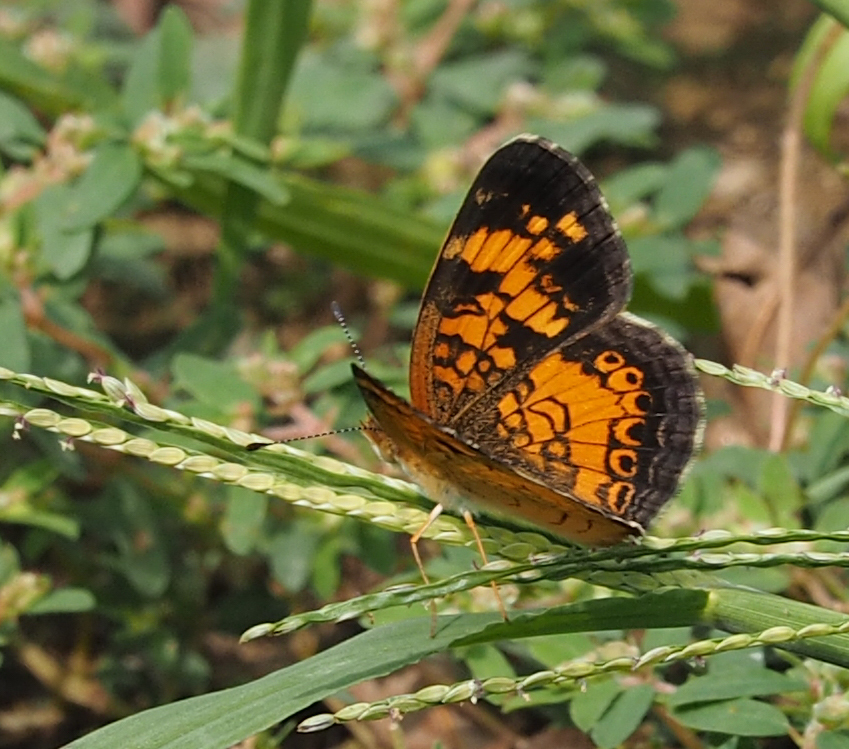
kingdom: Animalia
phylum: Arthropoda
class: Insecta
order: Lepidoptera
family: Nymphalidae
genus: Phyciodes
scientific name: Phyciodes tharos
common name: Pearl crescent
